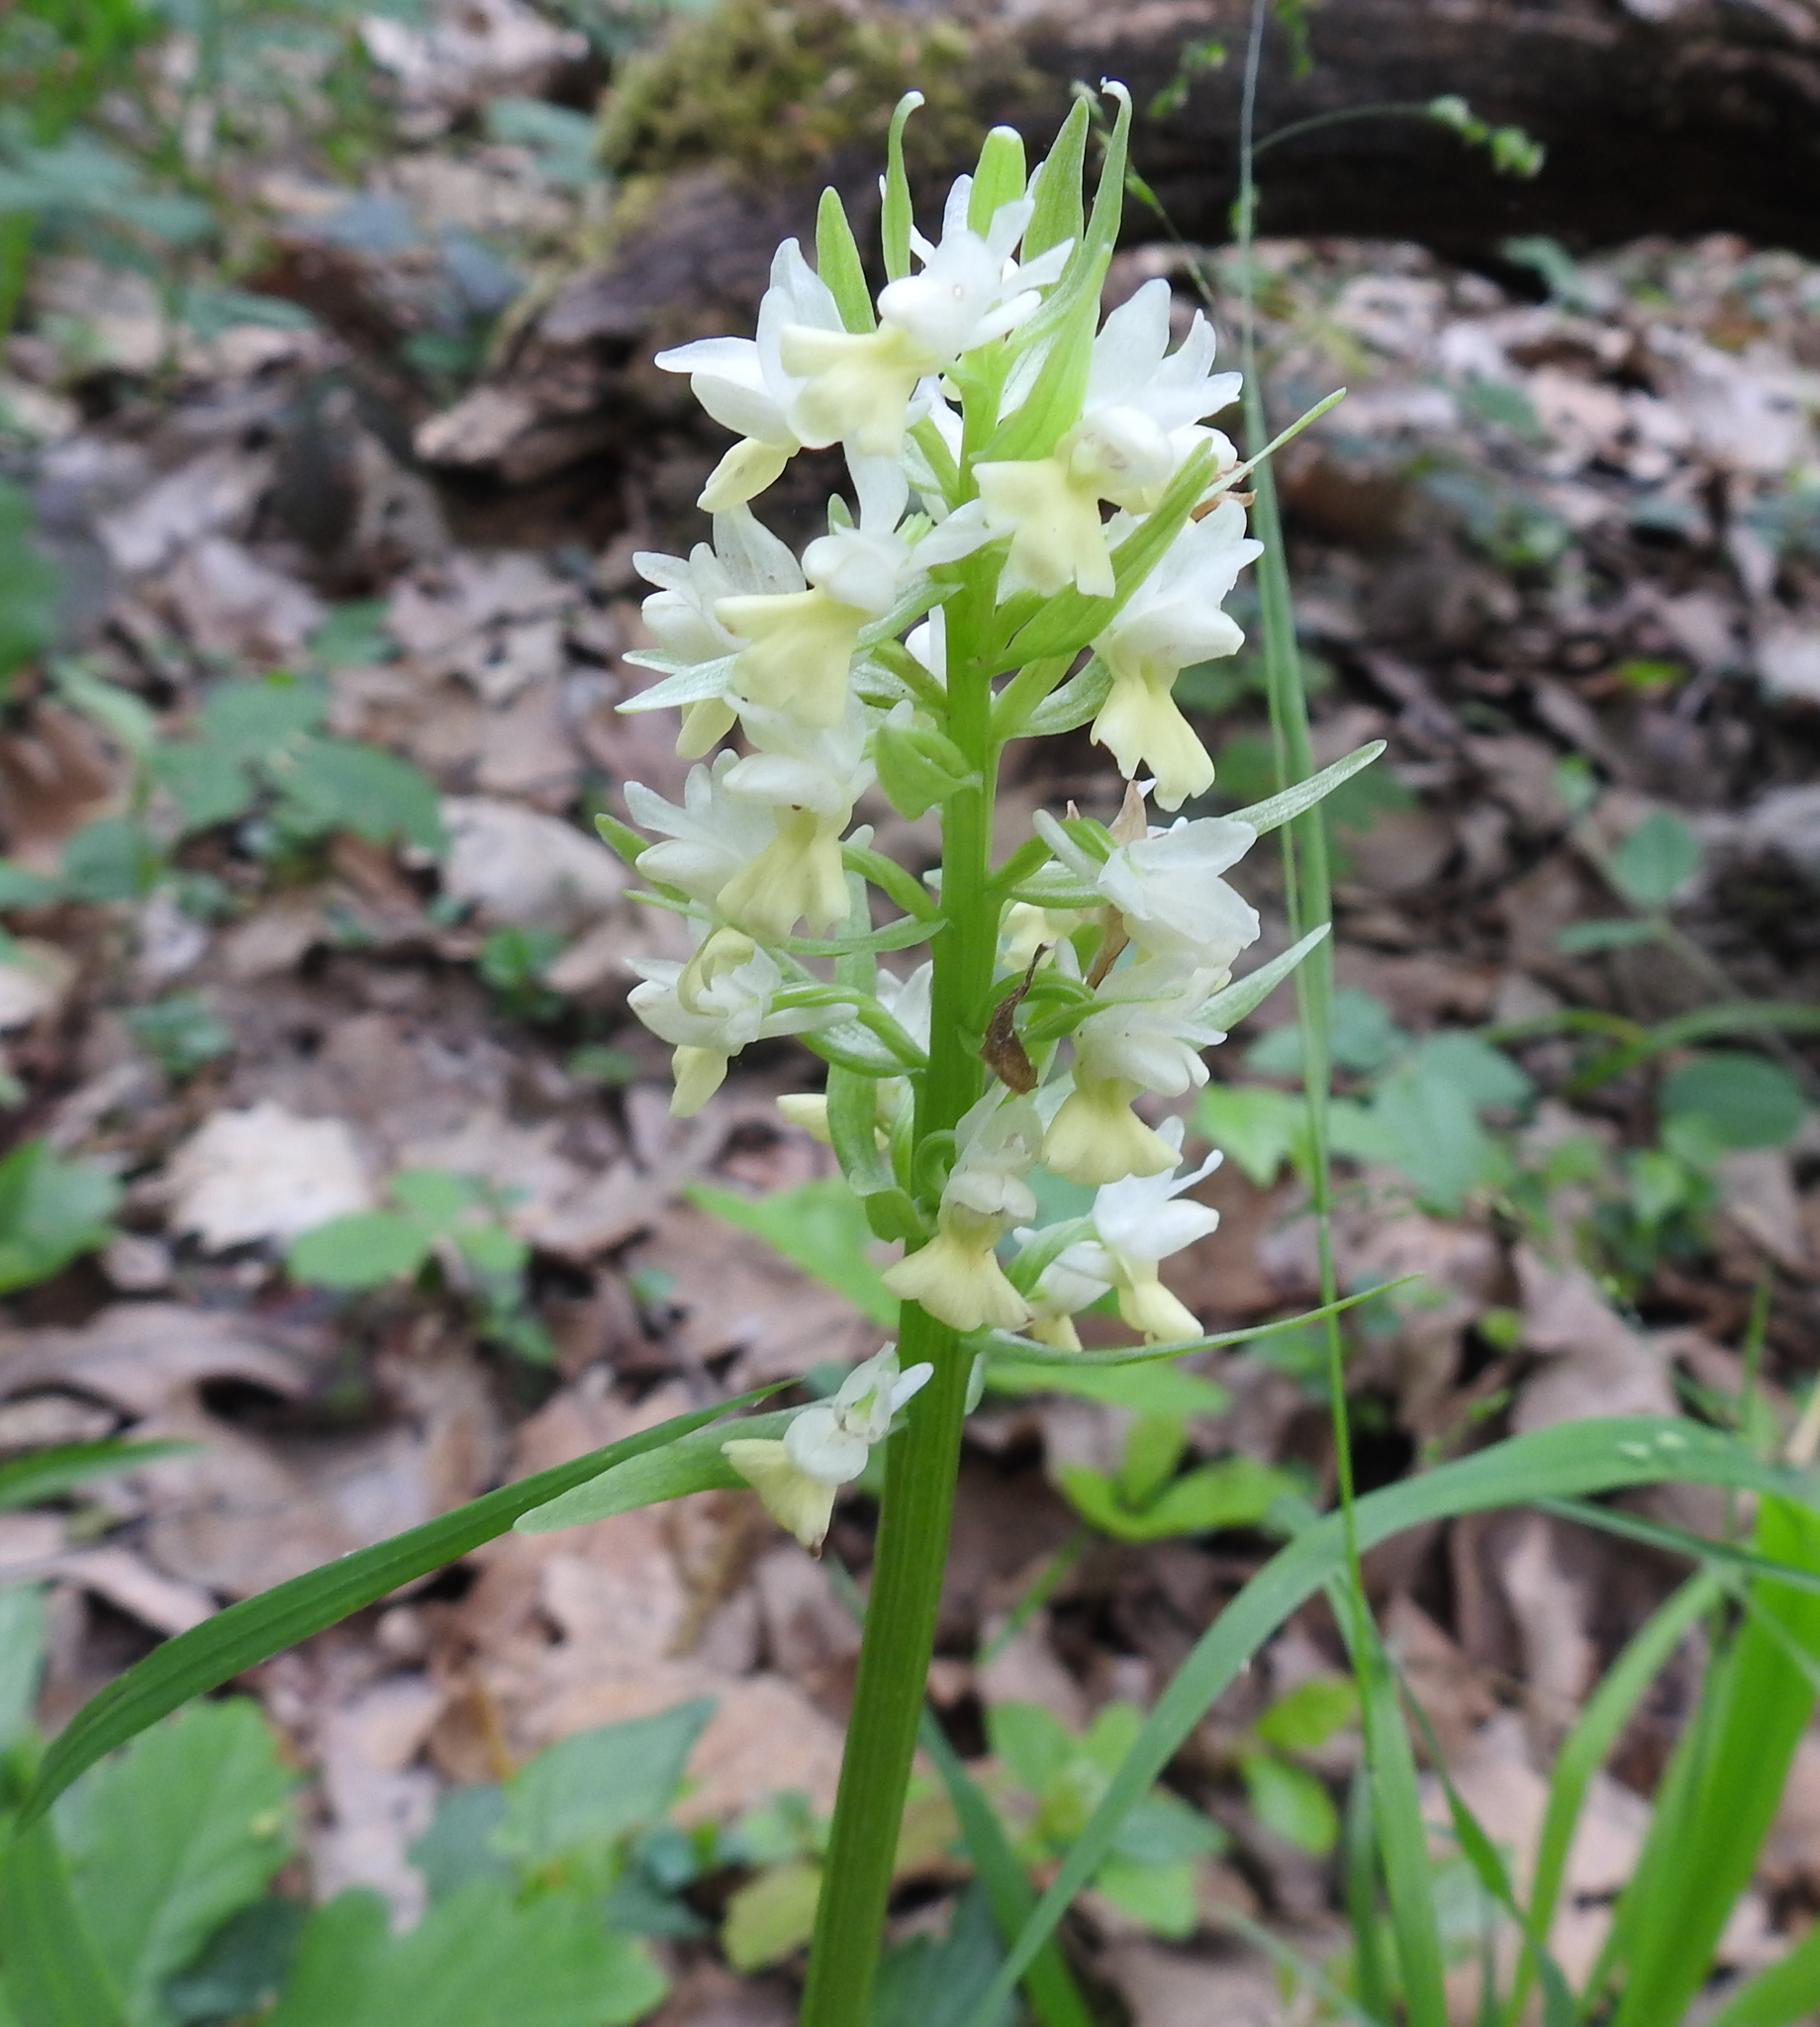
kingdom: Plantae
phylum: Tracheophyta
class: Liliopsida
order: Asparagales
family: Orchidaceae
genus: Dactylorhiza
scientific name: Dactylorhiza romana
